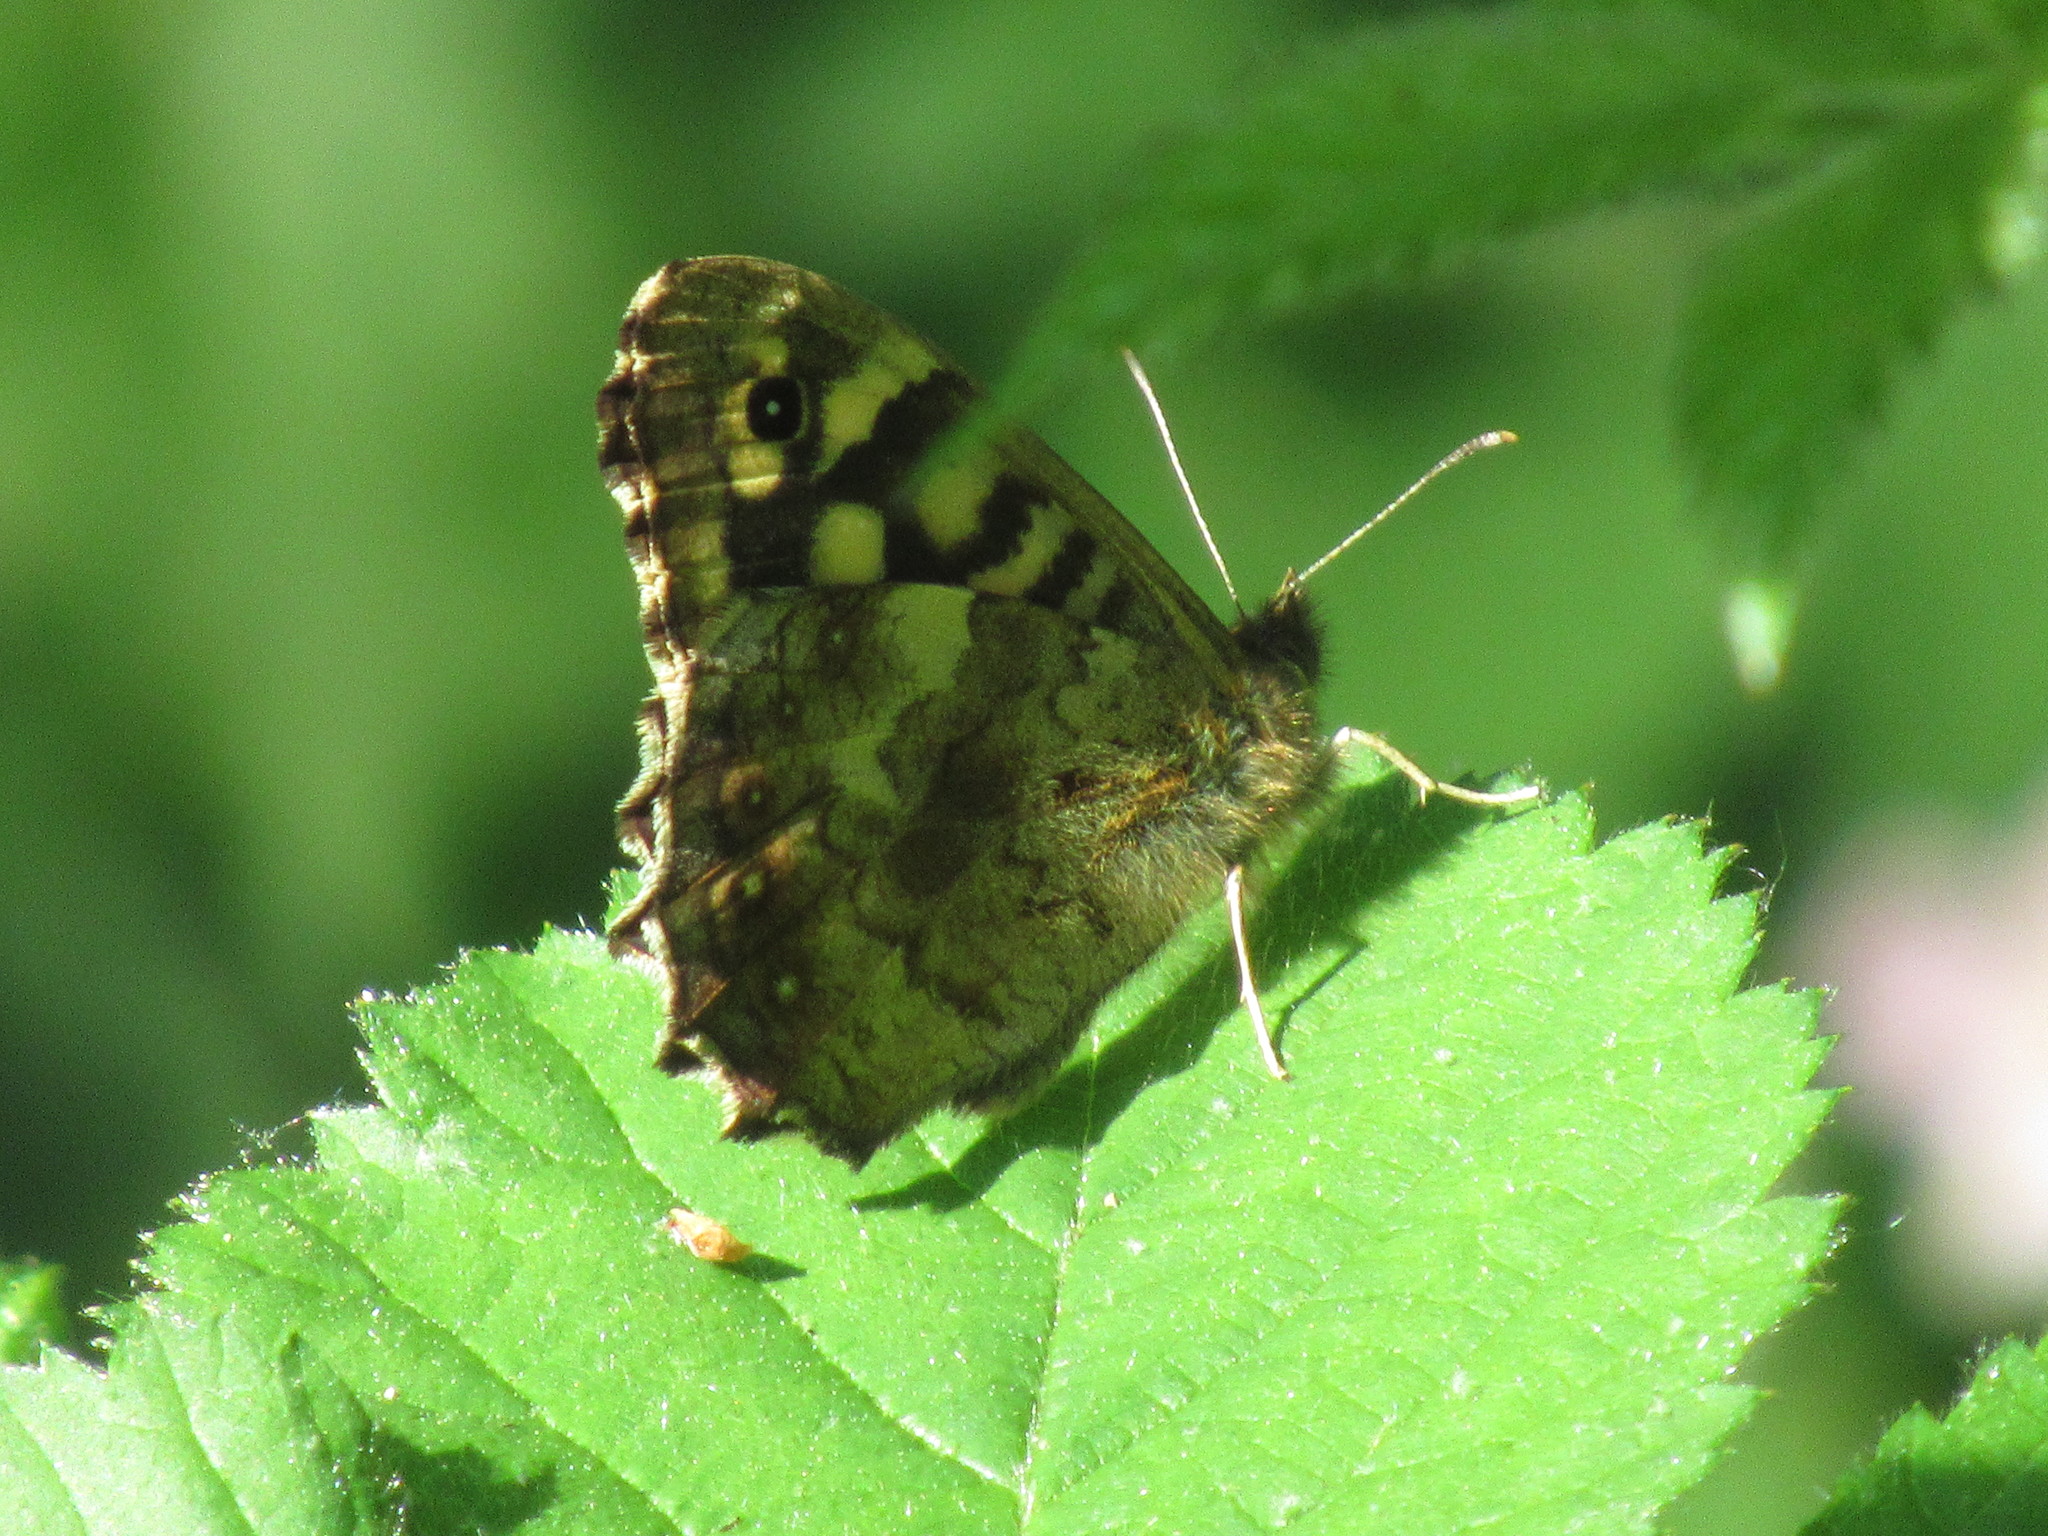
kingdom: Animalia
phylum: Arthropoda
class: Insecta
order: Lepidoptera
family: Nymphalidae
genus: Pararge
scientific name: Pararge aegeria
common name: Speckled wood
